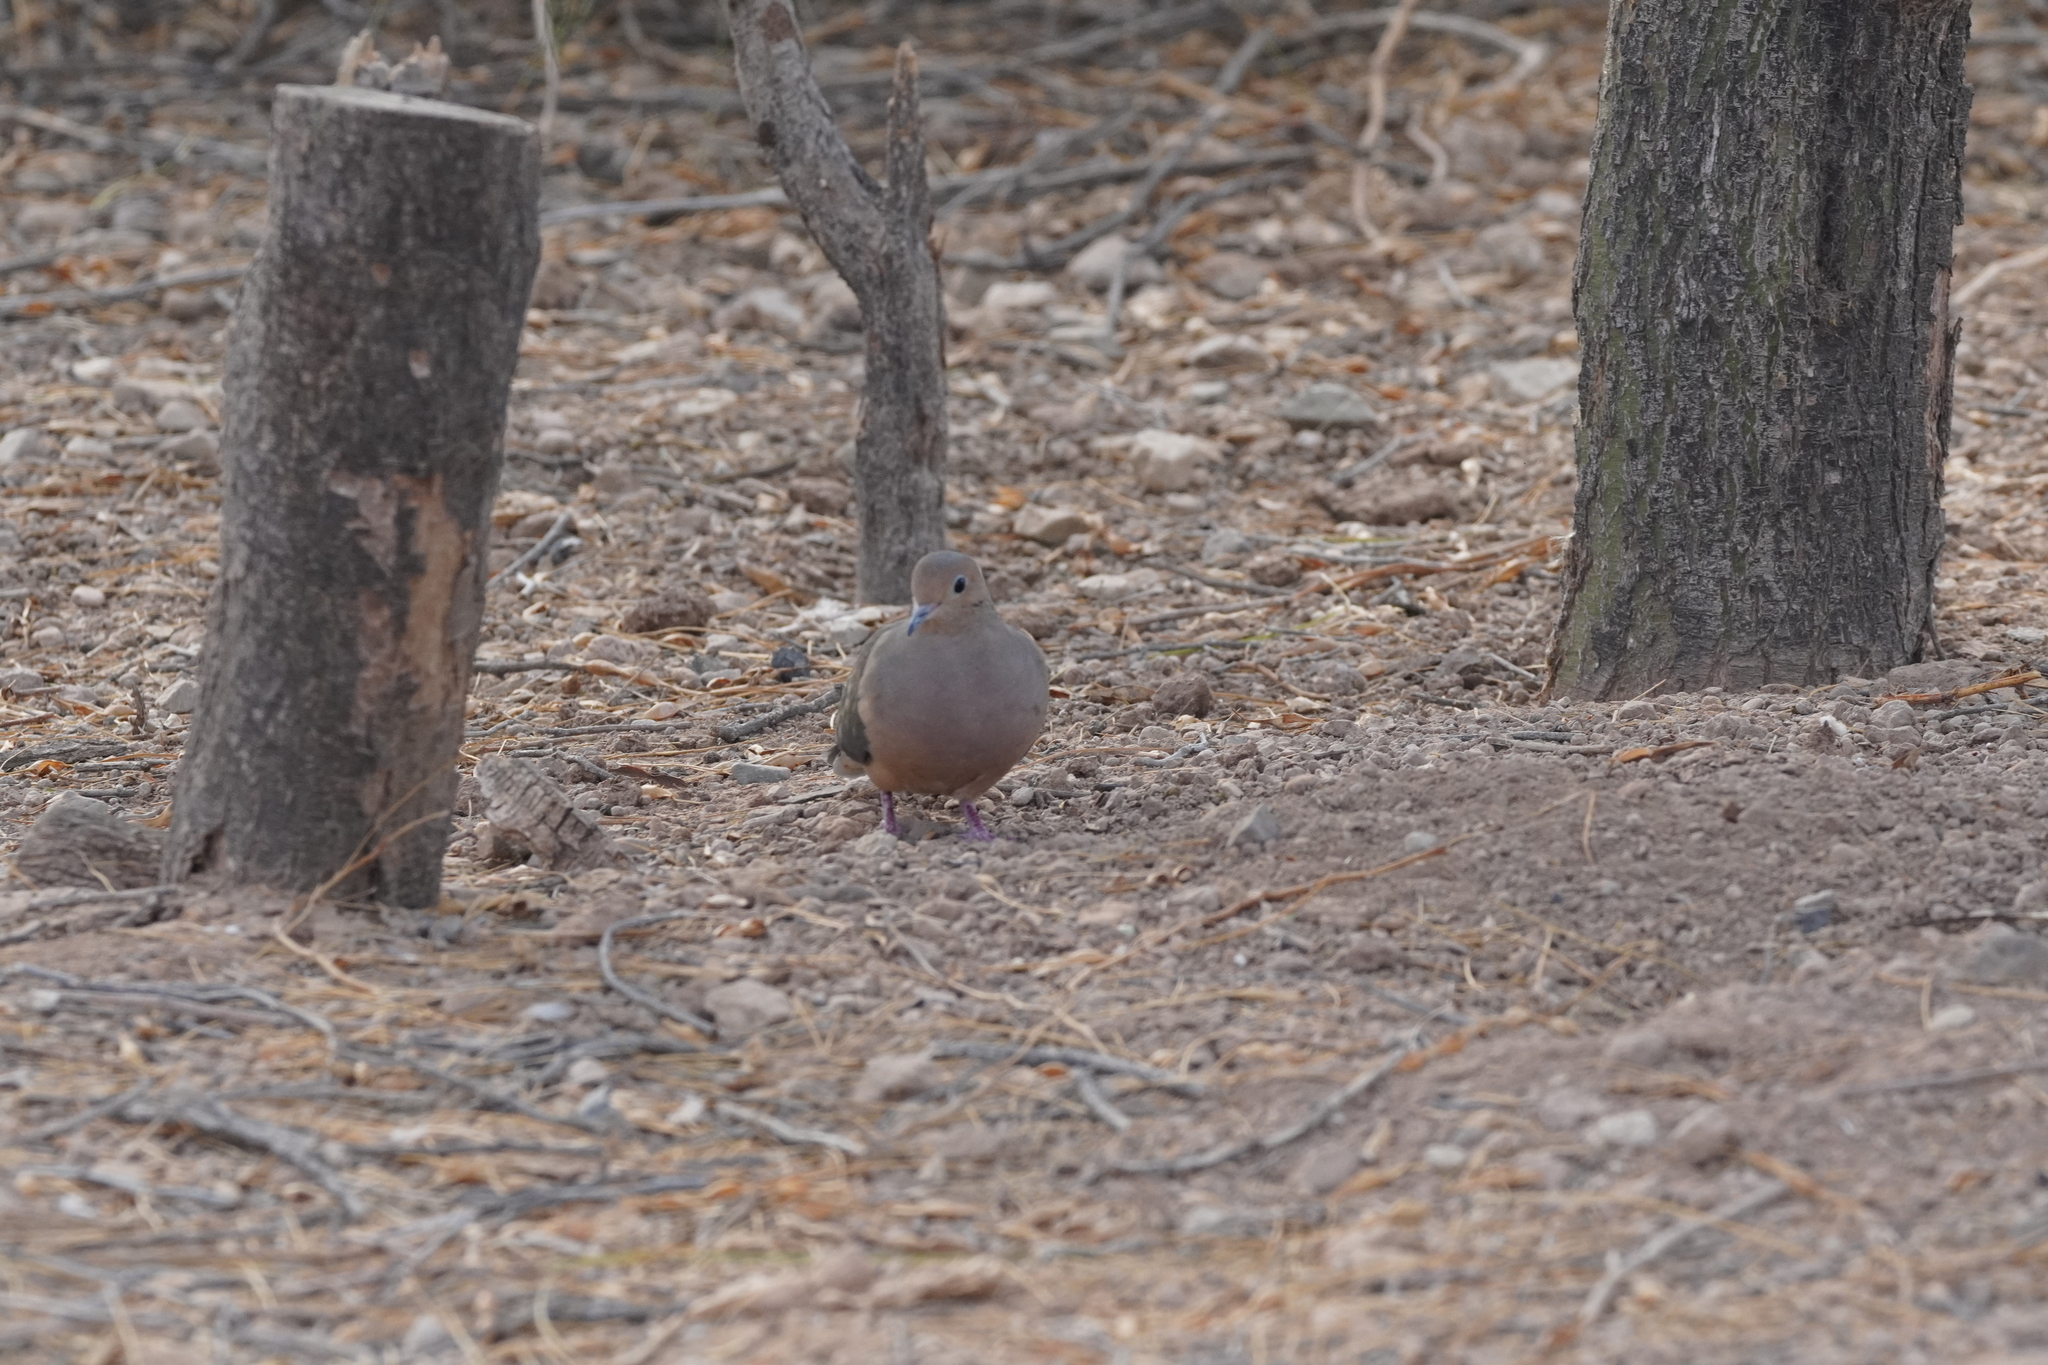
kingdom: Animalia
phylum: Chordata
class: Aves
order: Columbiformes
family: Columbidae
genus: Zenaida
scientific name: Zenaida macroura
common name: Mourning dove
